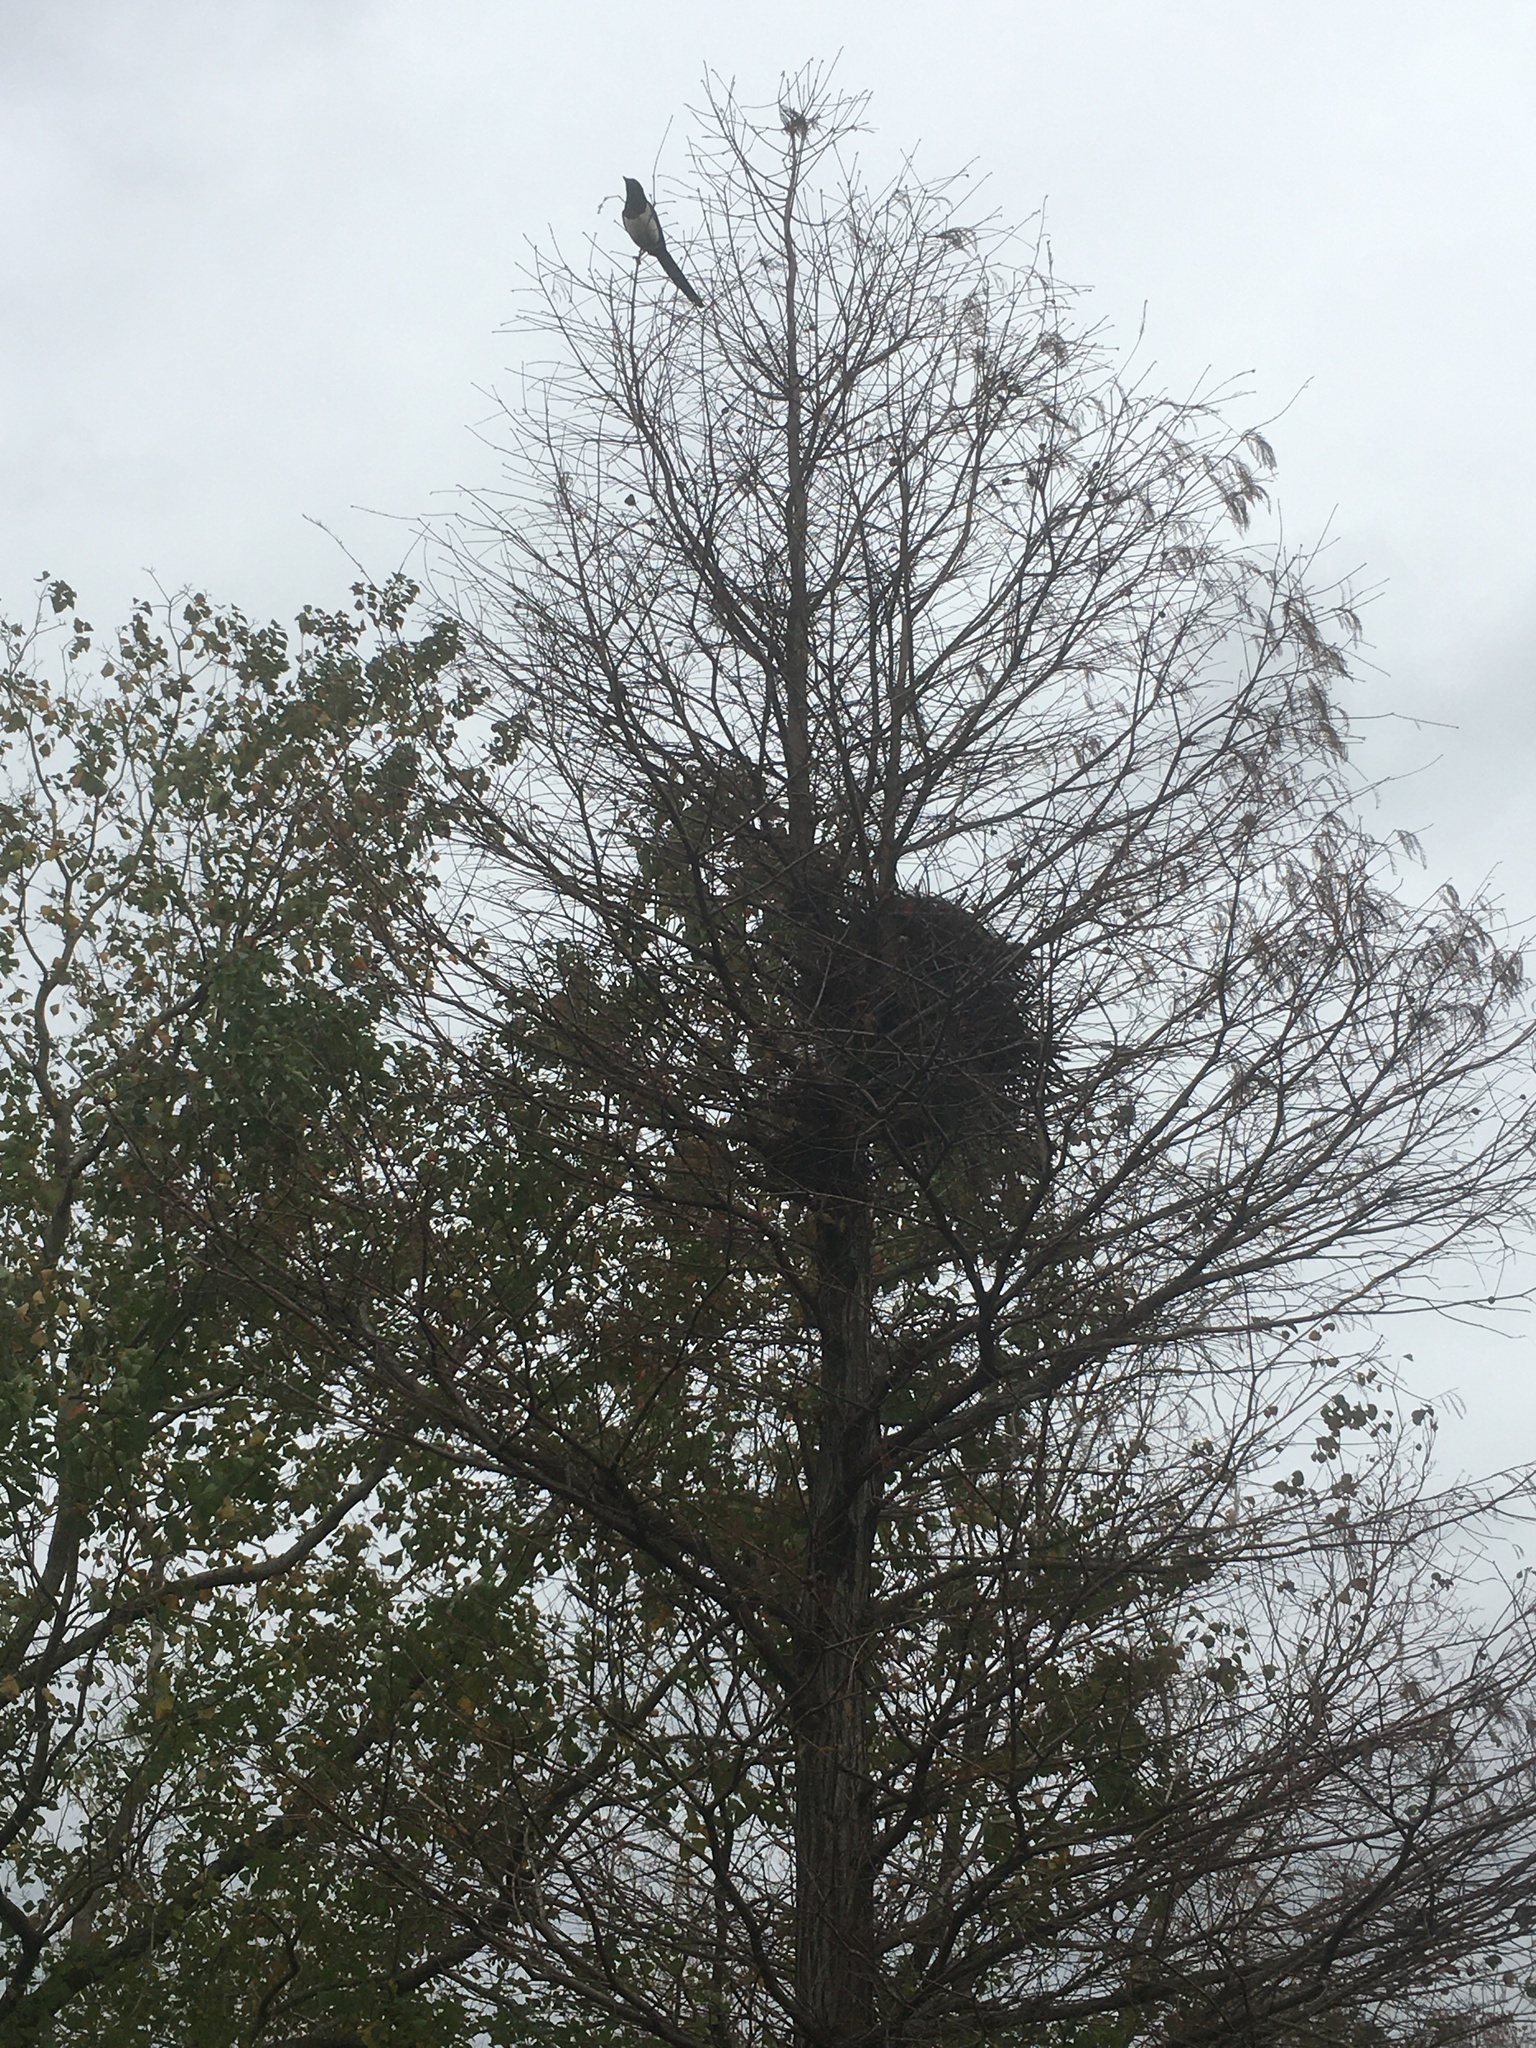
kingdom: Animalia
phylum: Chordata
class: Aves
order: Passeriformes
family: Corvidae
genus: Pica
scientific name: Pica serica
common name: Oriental magpie
